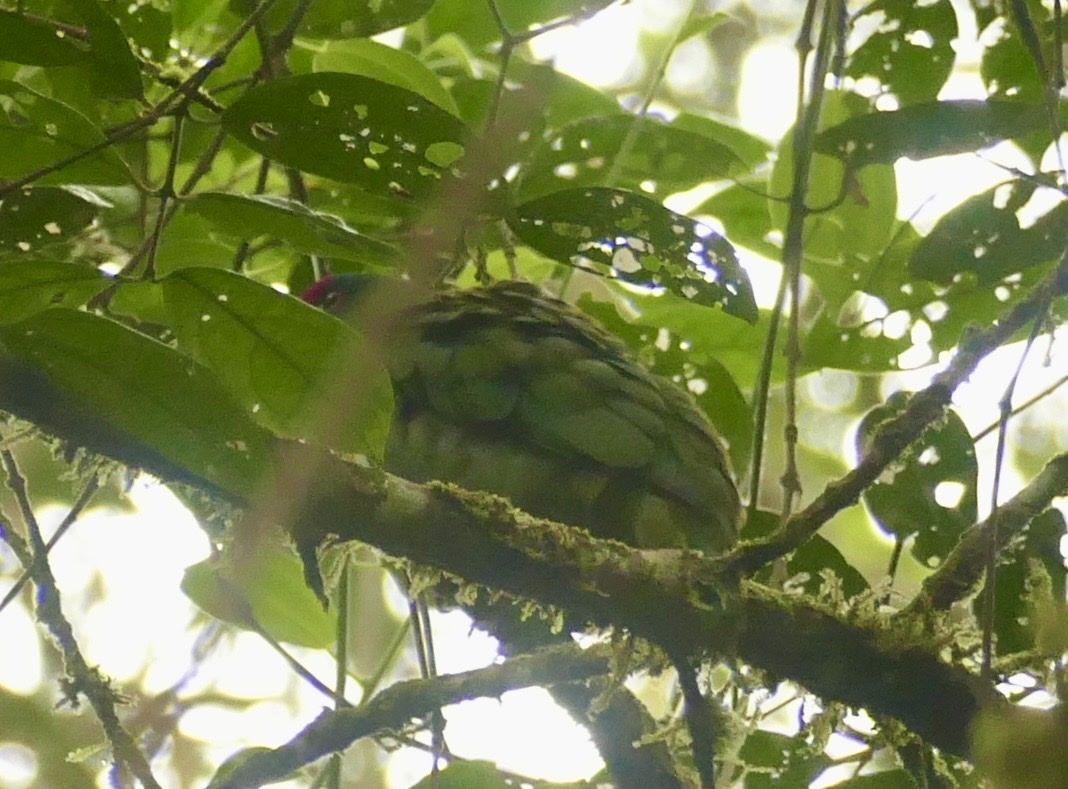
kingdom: Animalia
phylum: Chordata
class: Aves
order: Columbiformes
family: Columbidae
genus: Ptilinopus
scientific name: Ptilinopus rivoli
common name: White-bibbed fruit dove
